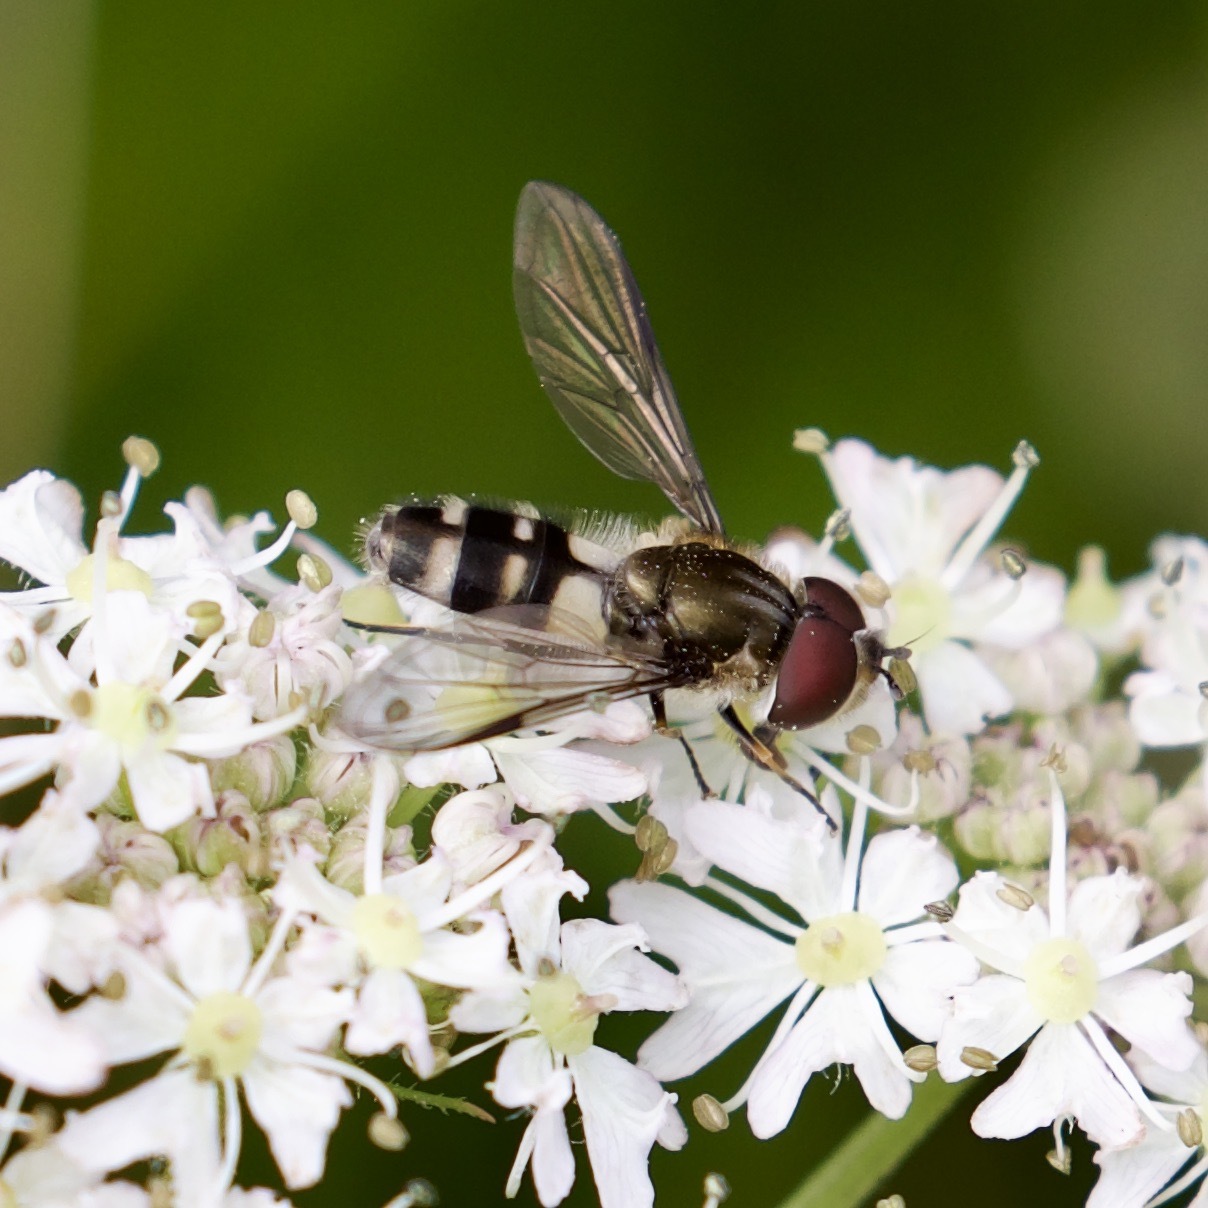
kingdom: Animalia
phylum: Arthropoda
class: Insecta
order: Diptera
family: Syrphidae
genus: Leucozona
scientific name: Leucozona laternaria
